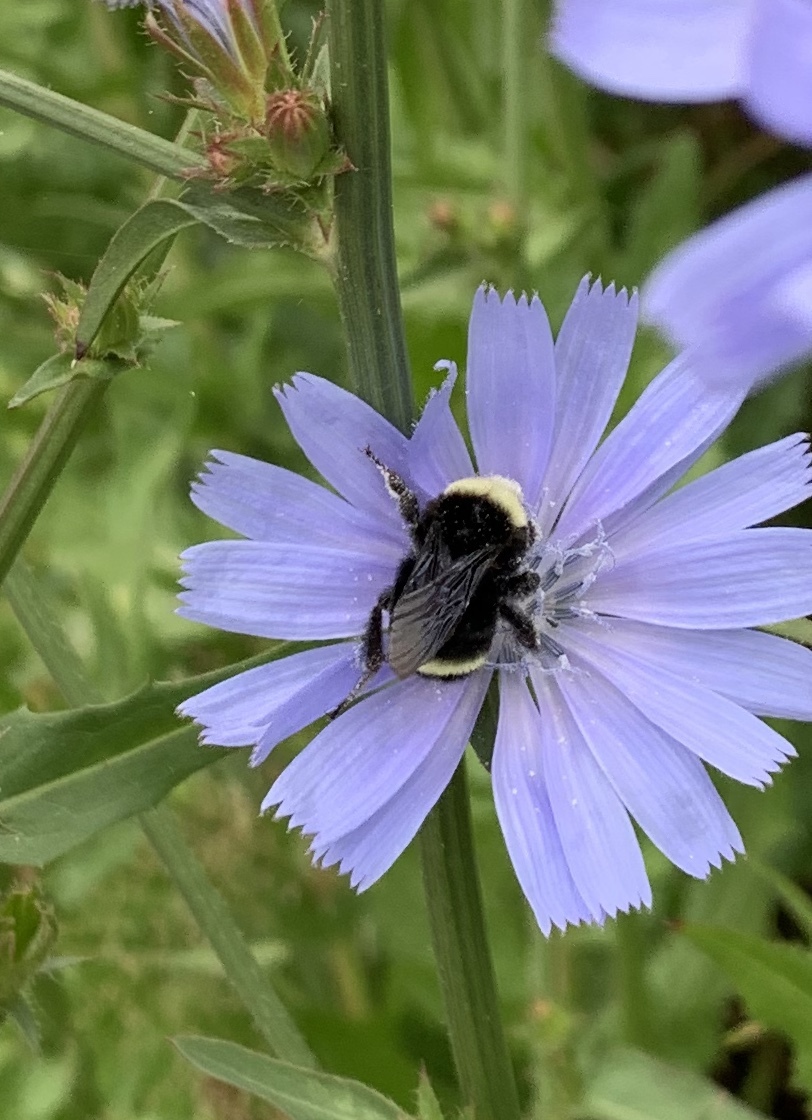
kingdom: Animalia
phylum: Arthropoda
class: Insecta
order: Hymenoptera
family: Apidae
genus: Bombus
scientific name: Bombus vosnesenskii
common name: Vosnesensky bumble bee
